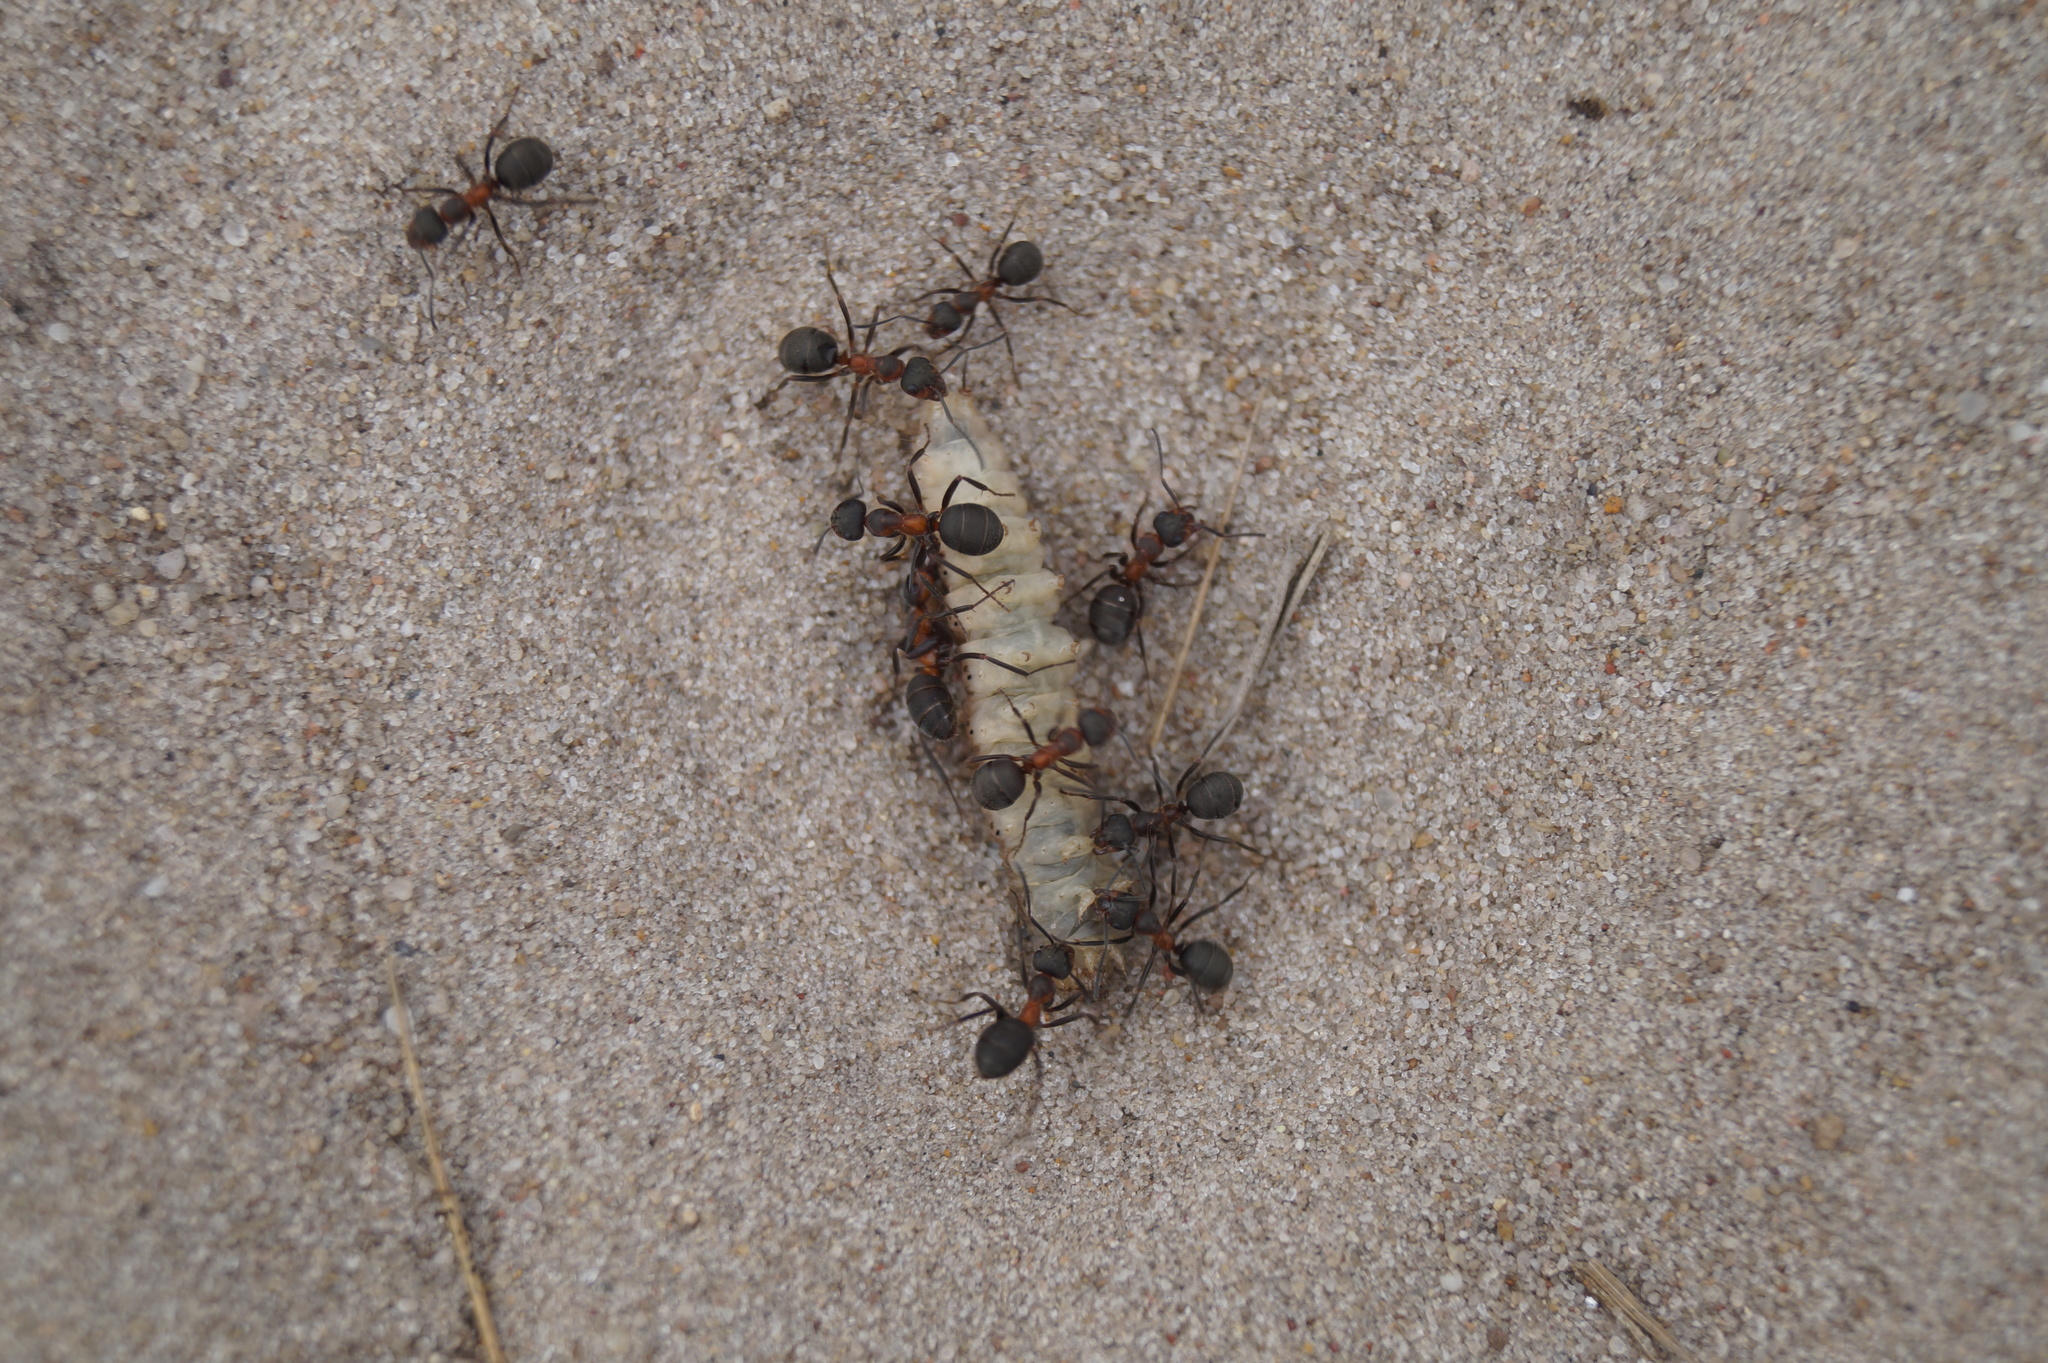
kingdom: Animalia
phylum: Arthropoda
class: Insecta
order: Hymenoptera
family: Formicidae
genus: Formica
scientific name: Formica pratensis
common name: European red wood ant
